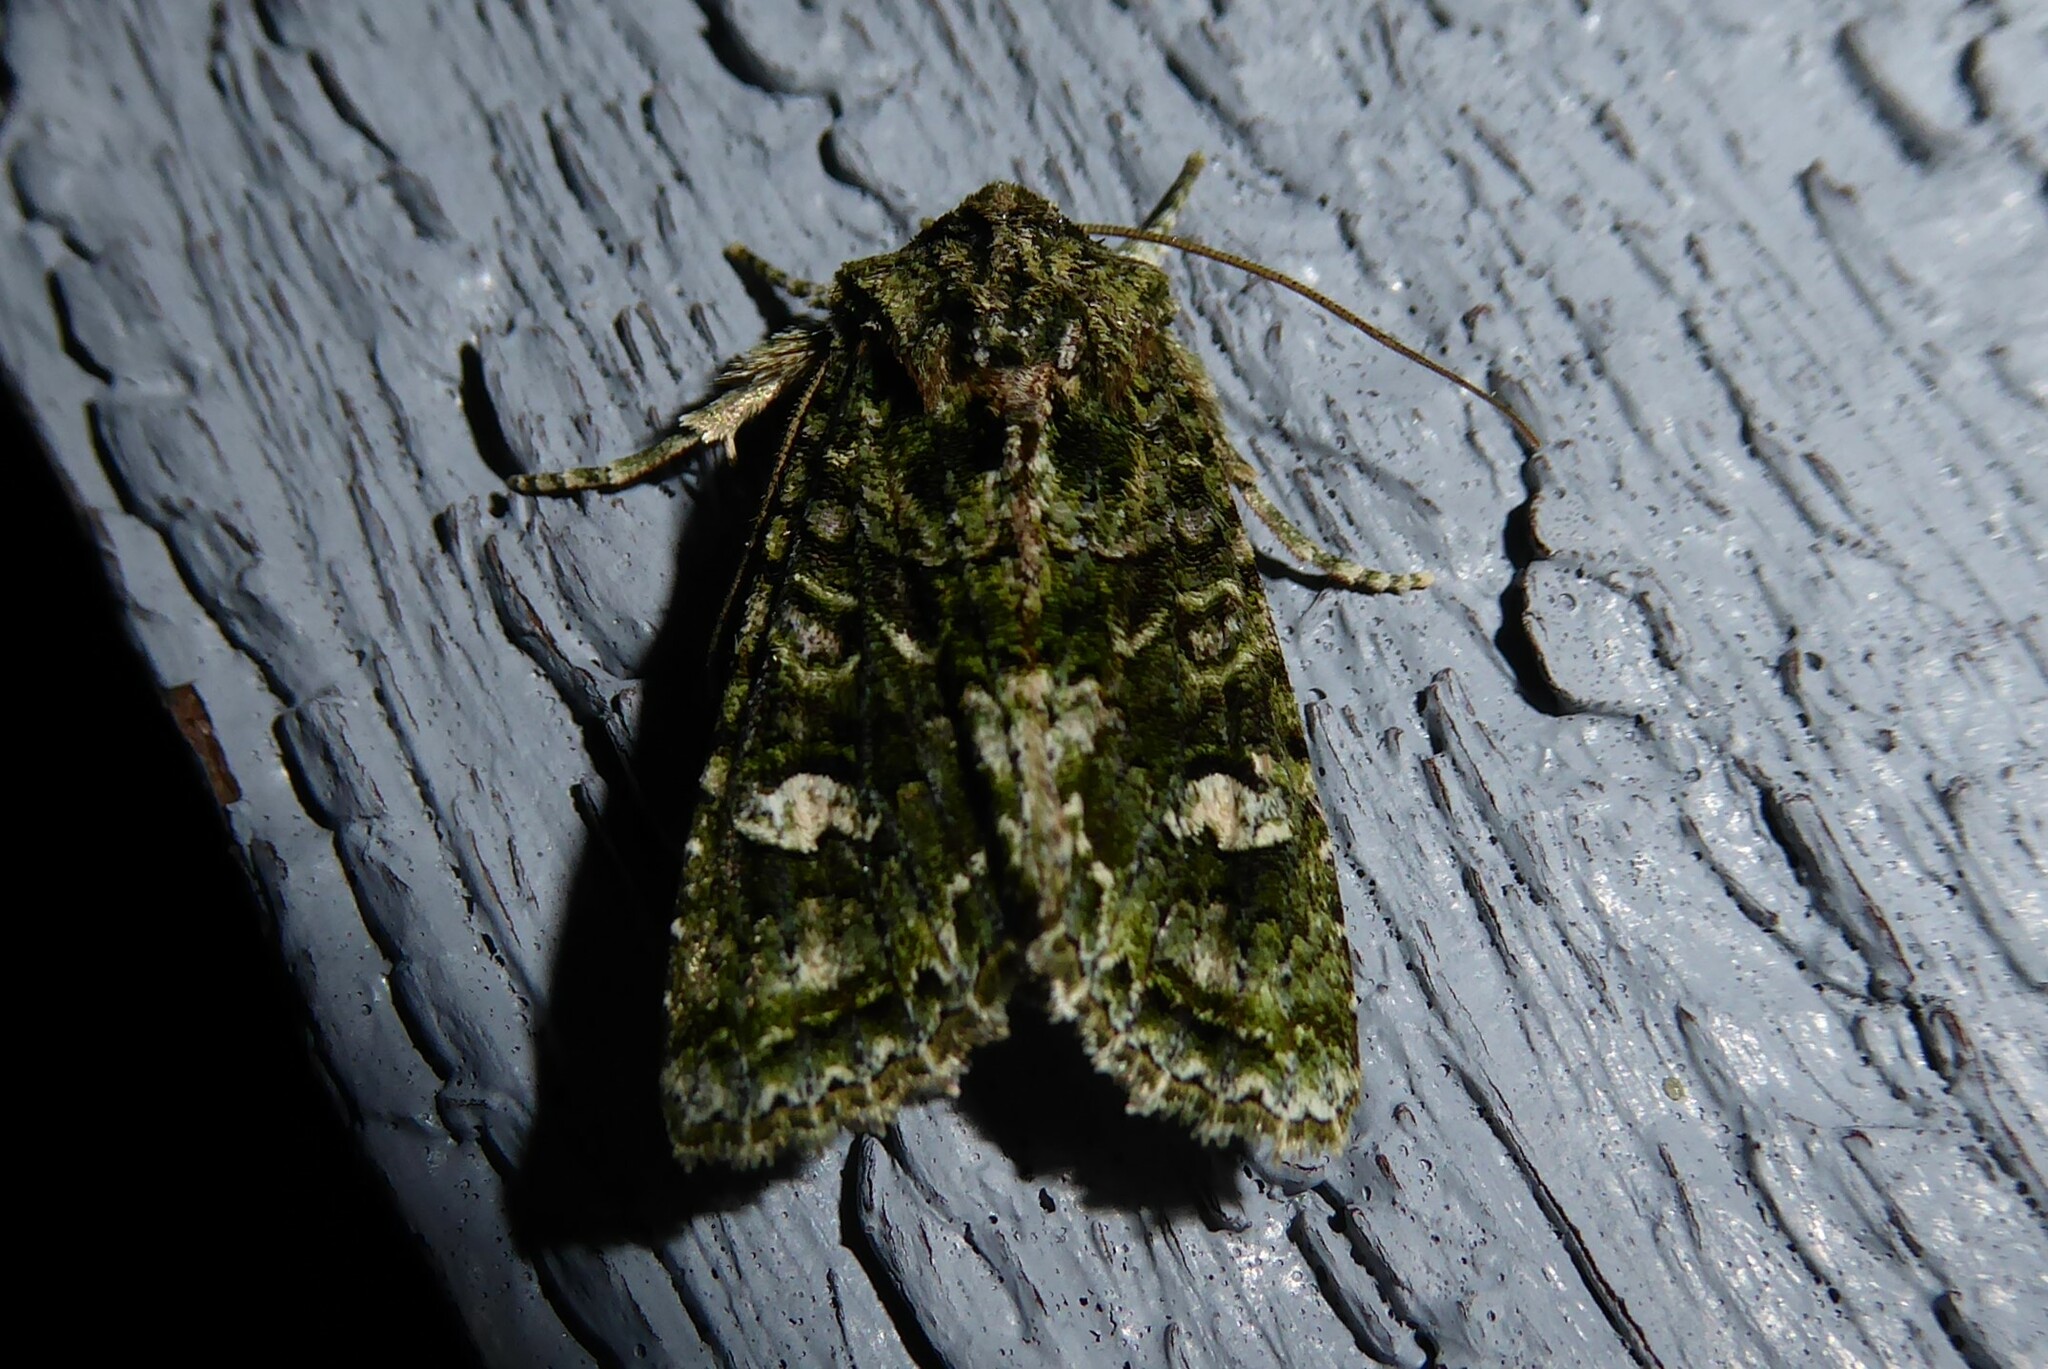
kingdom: Animalia
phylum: Arthropoda
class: Insecta
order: Lepidoptera
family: Noctuidae
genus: Ichneutica
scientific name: Ichneutica
